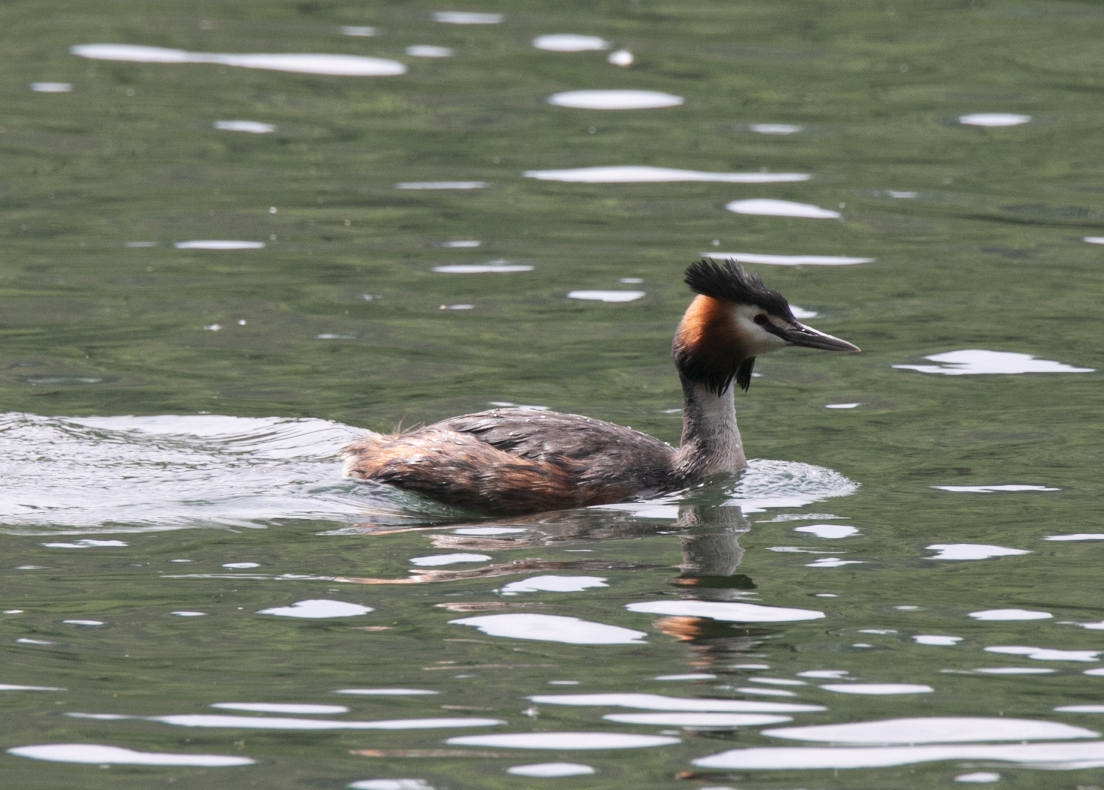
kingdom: Animalia
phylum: Chordata
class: Aves
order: Podicipediformes
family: Podicipedidae
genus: Podiceps
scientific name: Podiceps cristatus
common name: Great crested grebe
